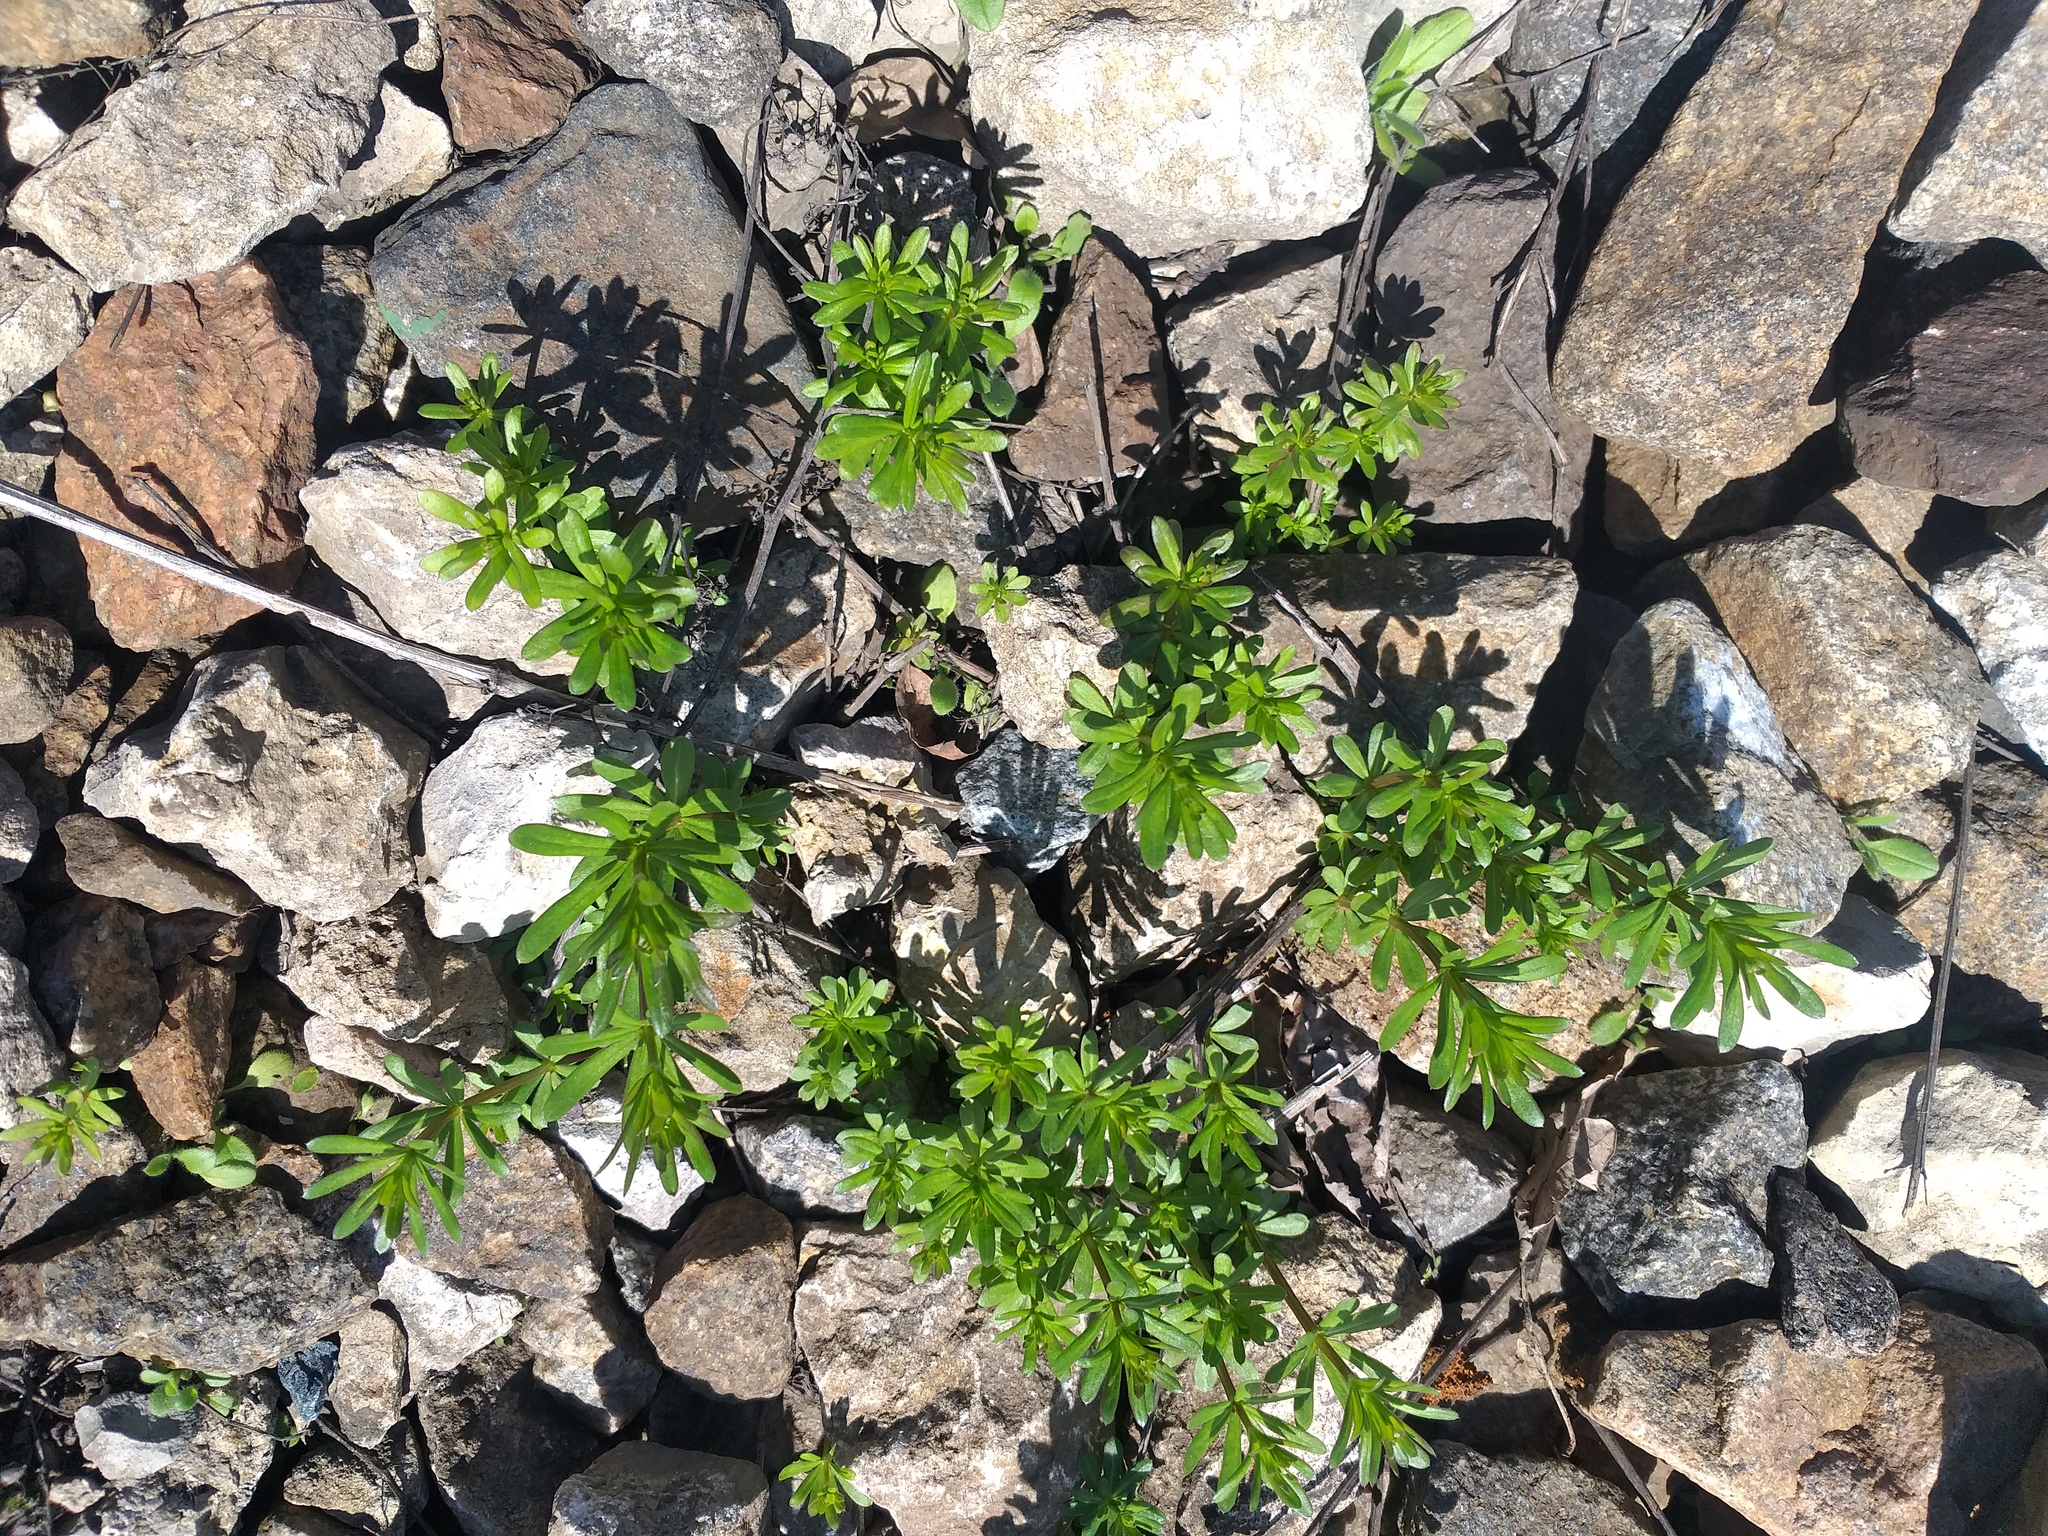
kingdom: Plantae
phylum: Tracheophyta
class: Magnoliopsida
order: Gentianales
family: Rubiaceae
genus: Galium
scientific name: Galium mollugo
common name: Hedge bedstraw
